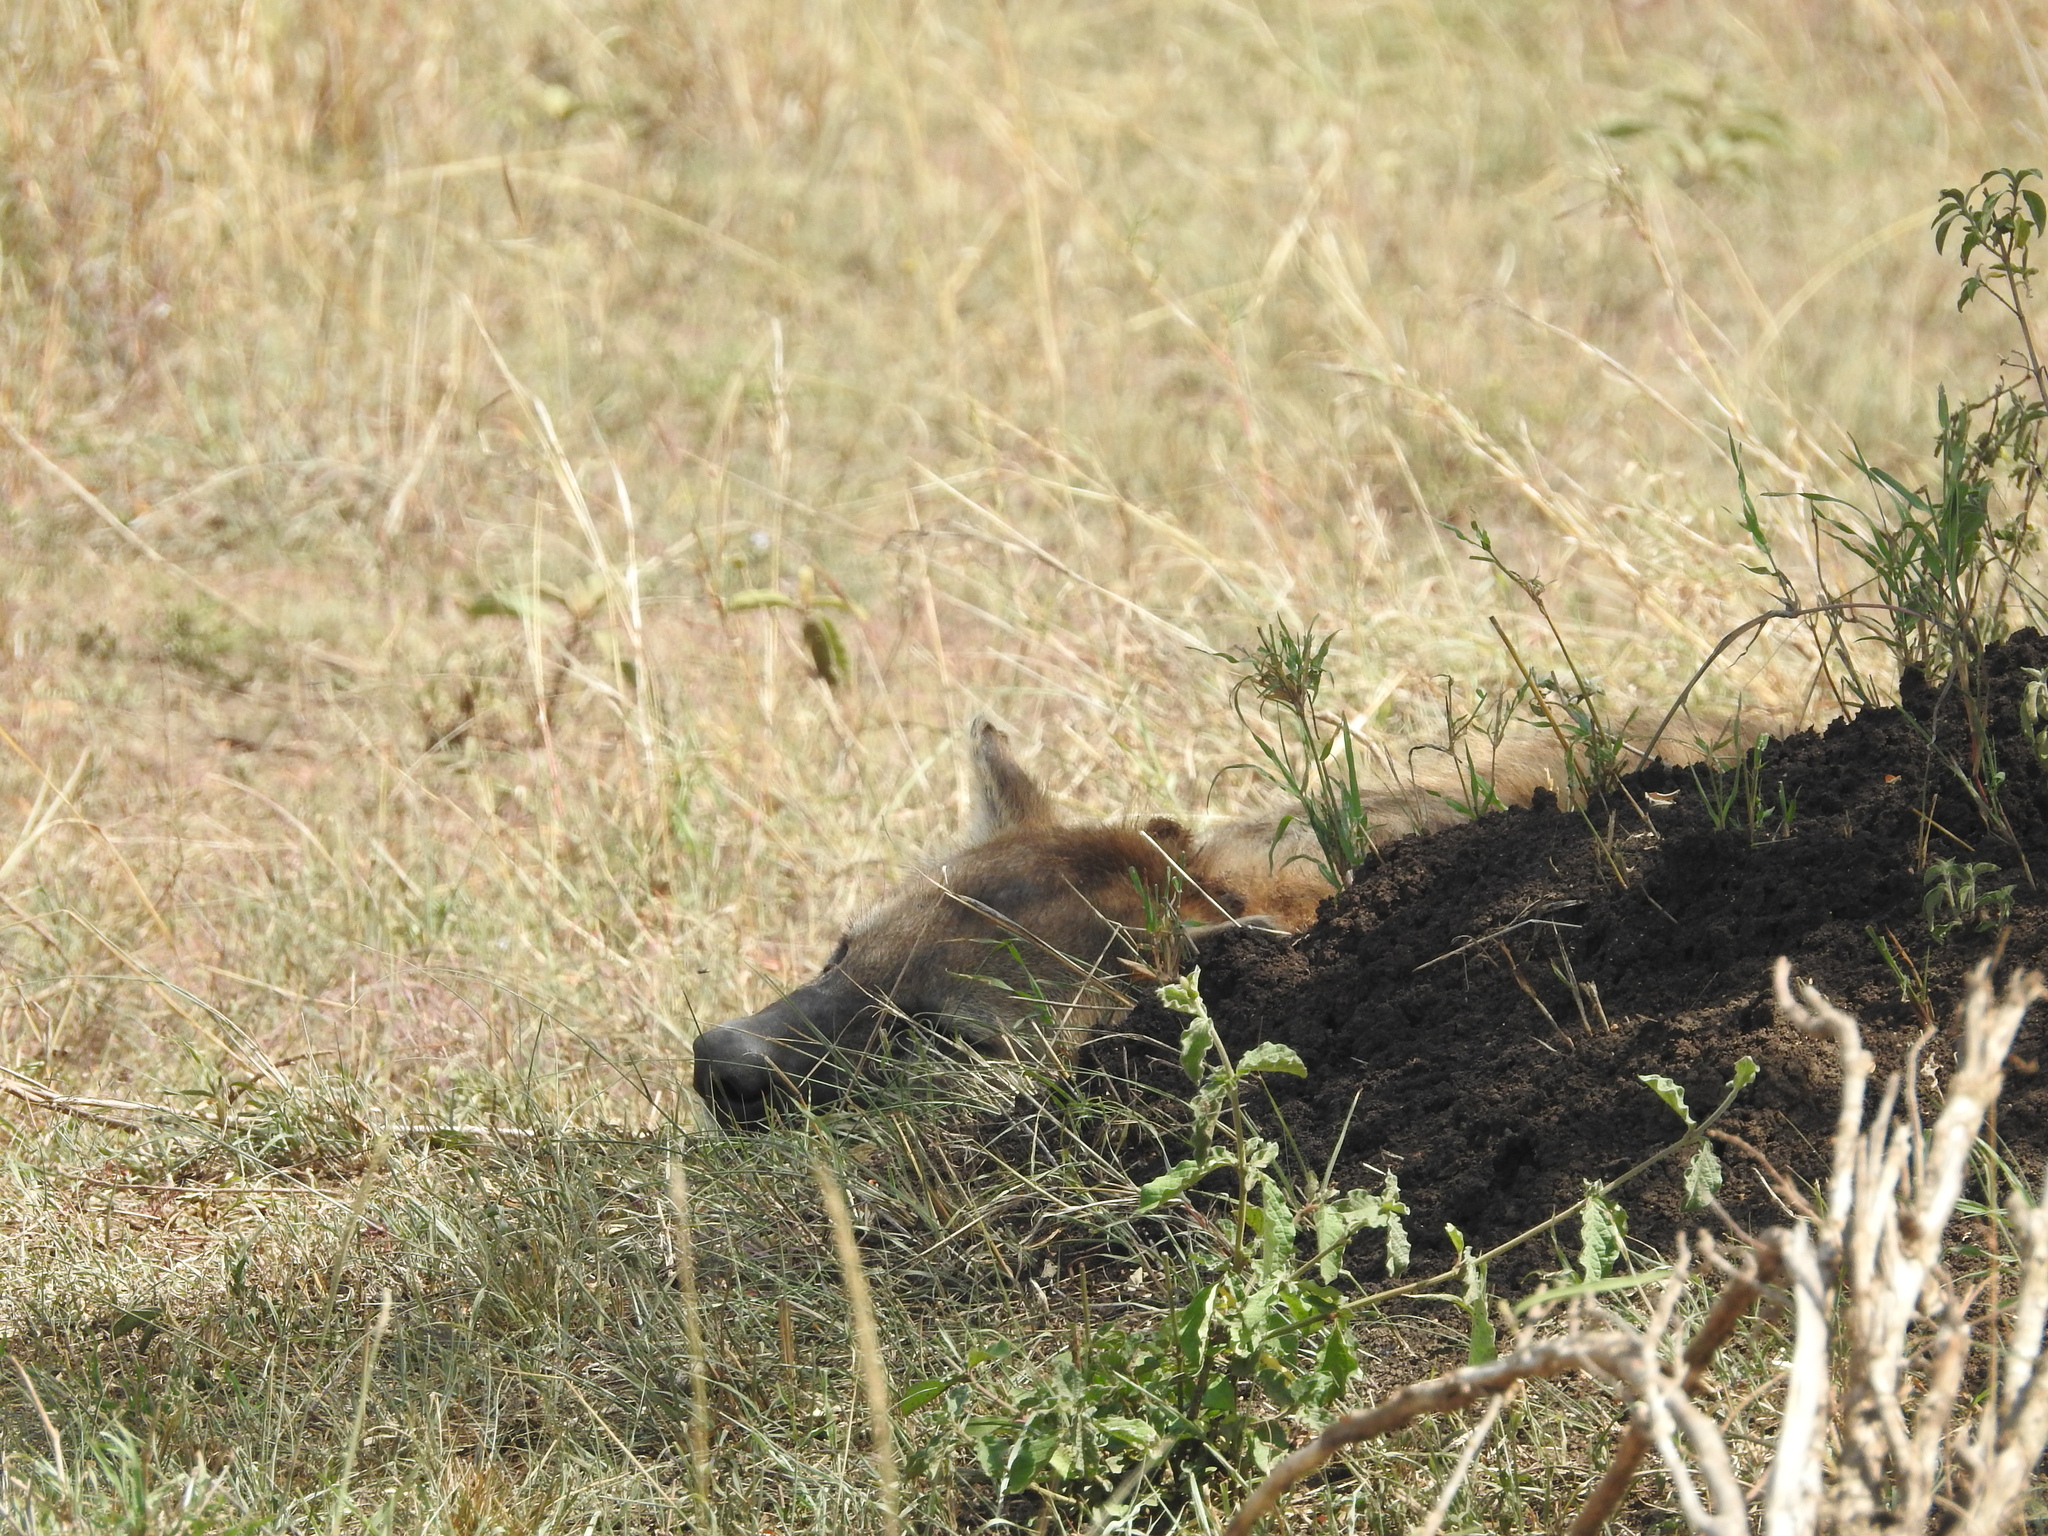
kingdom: Animalia
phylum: Chordata
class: Mammalia
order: Carnivora
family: Hyaenidae
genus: Crocuta
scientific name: Crocuta crocuta
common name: Spotted hyaena
